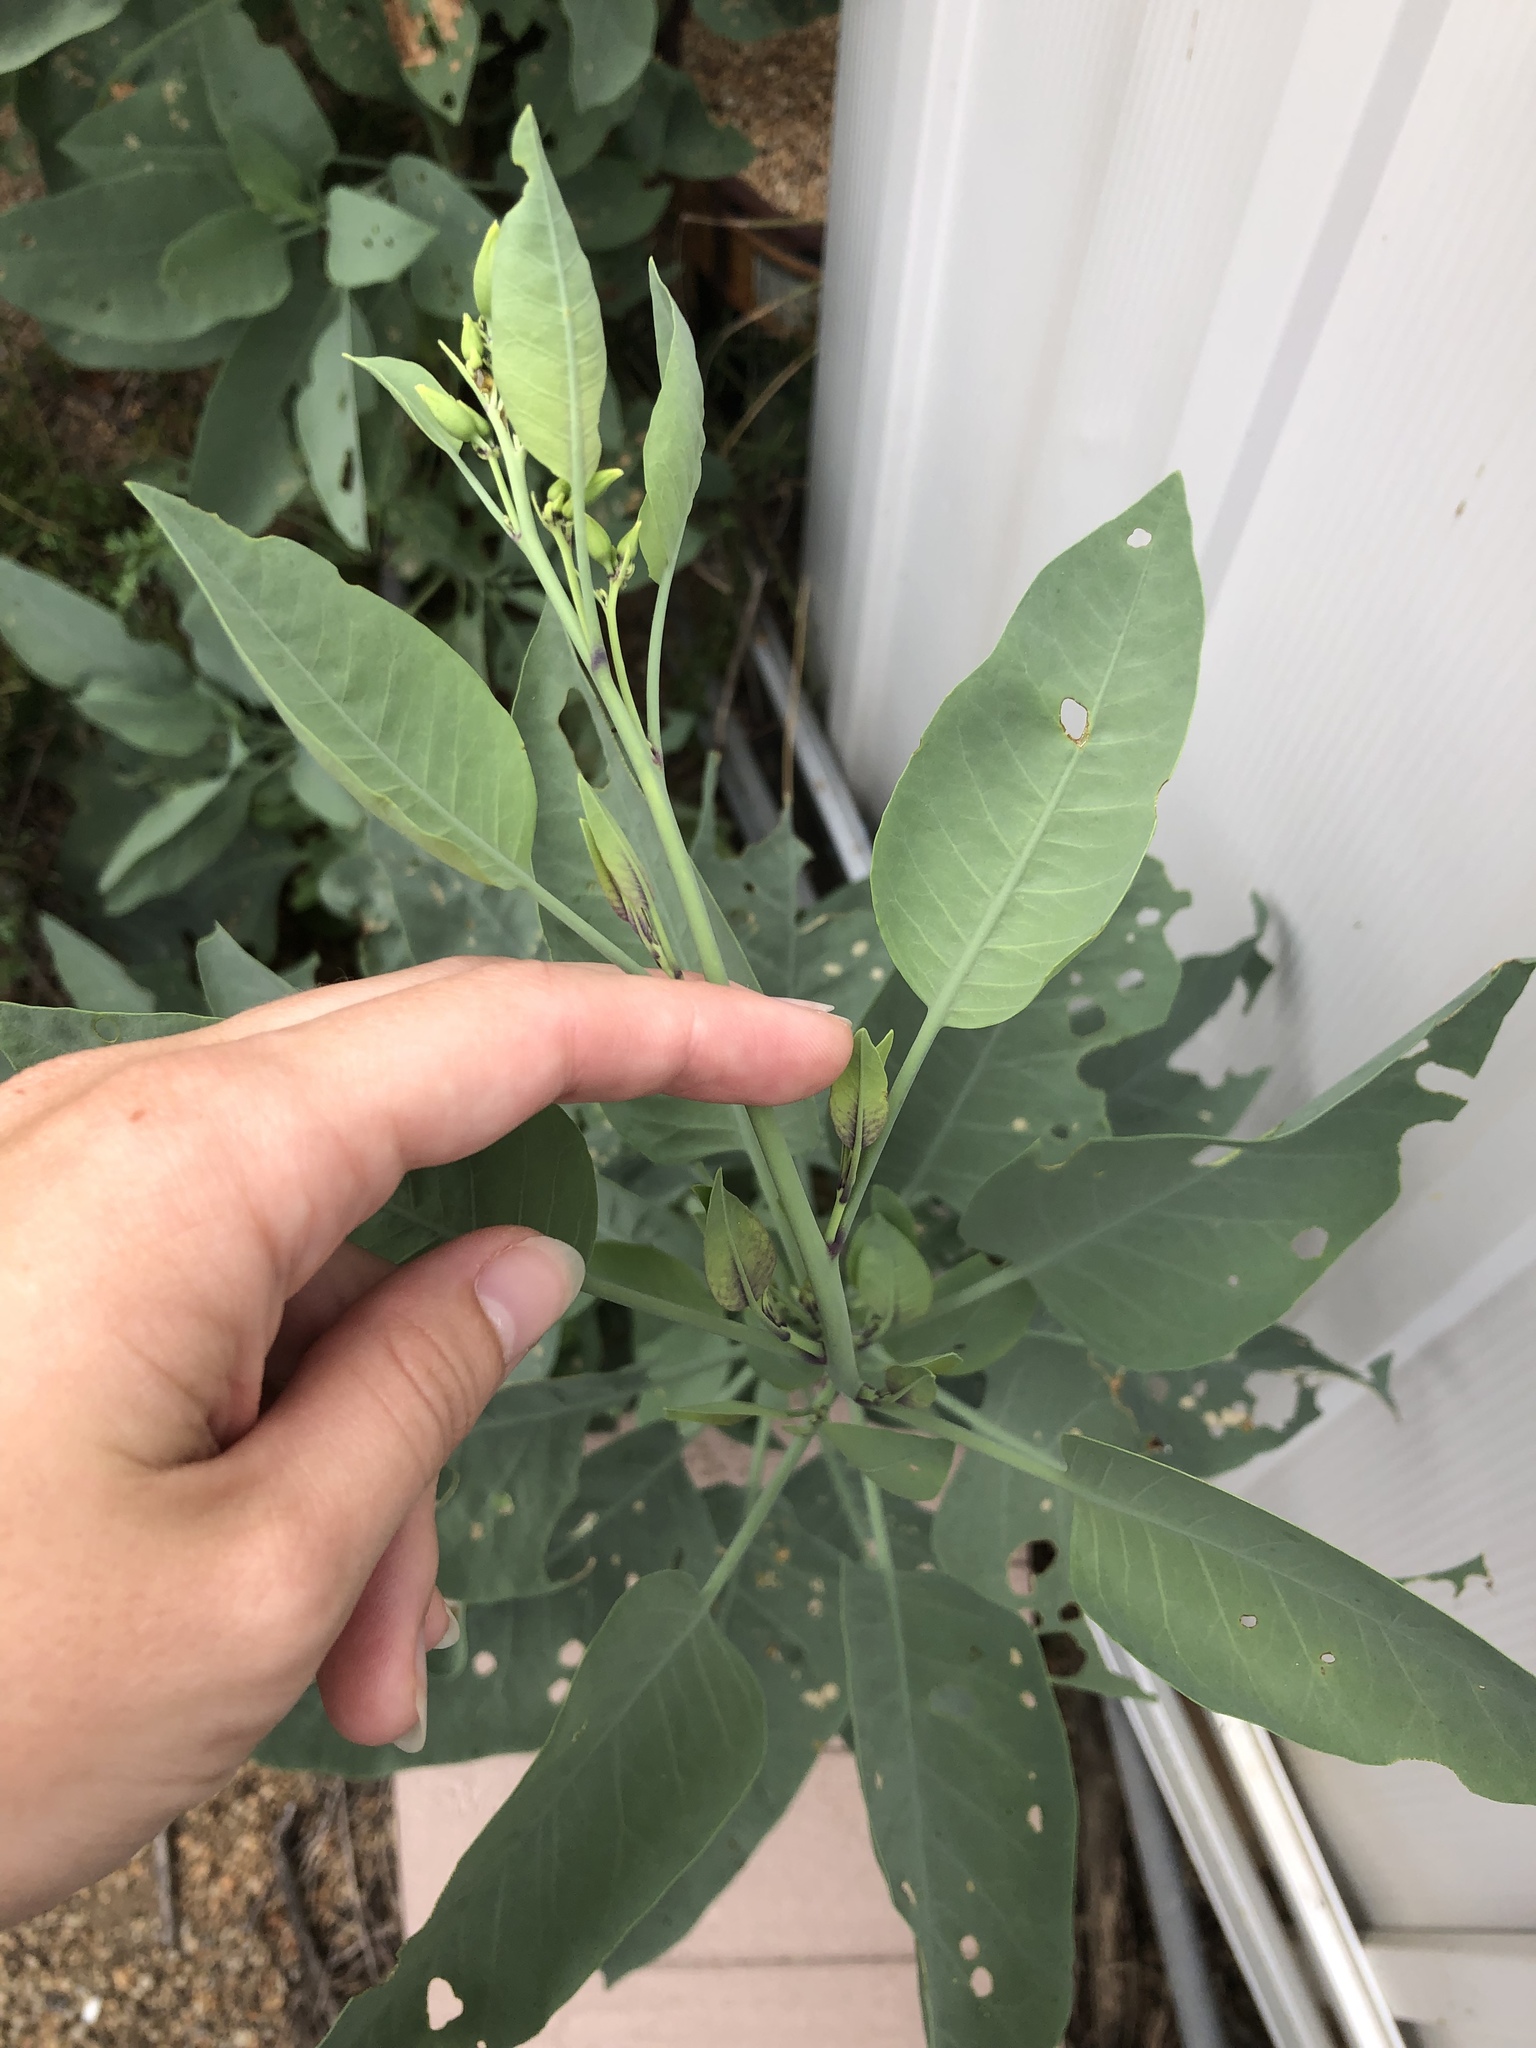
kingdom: Plantae
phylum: Tracheophyta
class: Magnoliopsida
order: Solanales
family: Solanaceae
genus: Nicotiana
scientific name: Nicotiana glauca
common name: Tree tobacco
